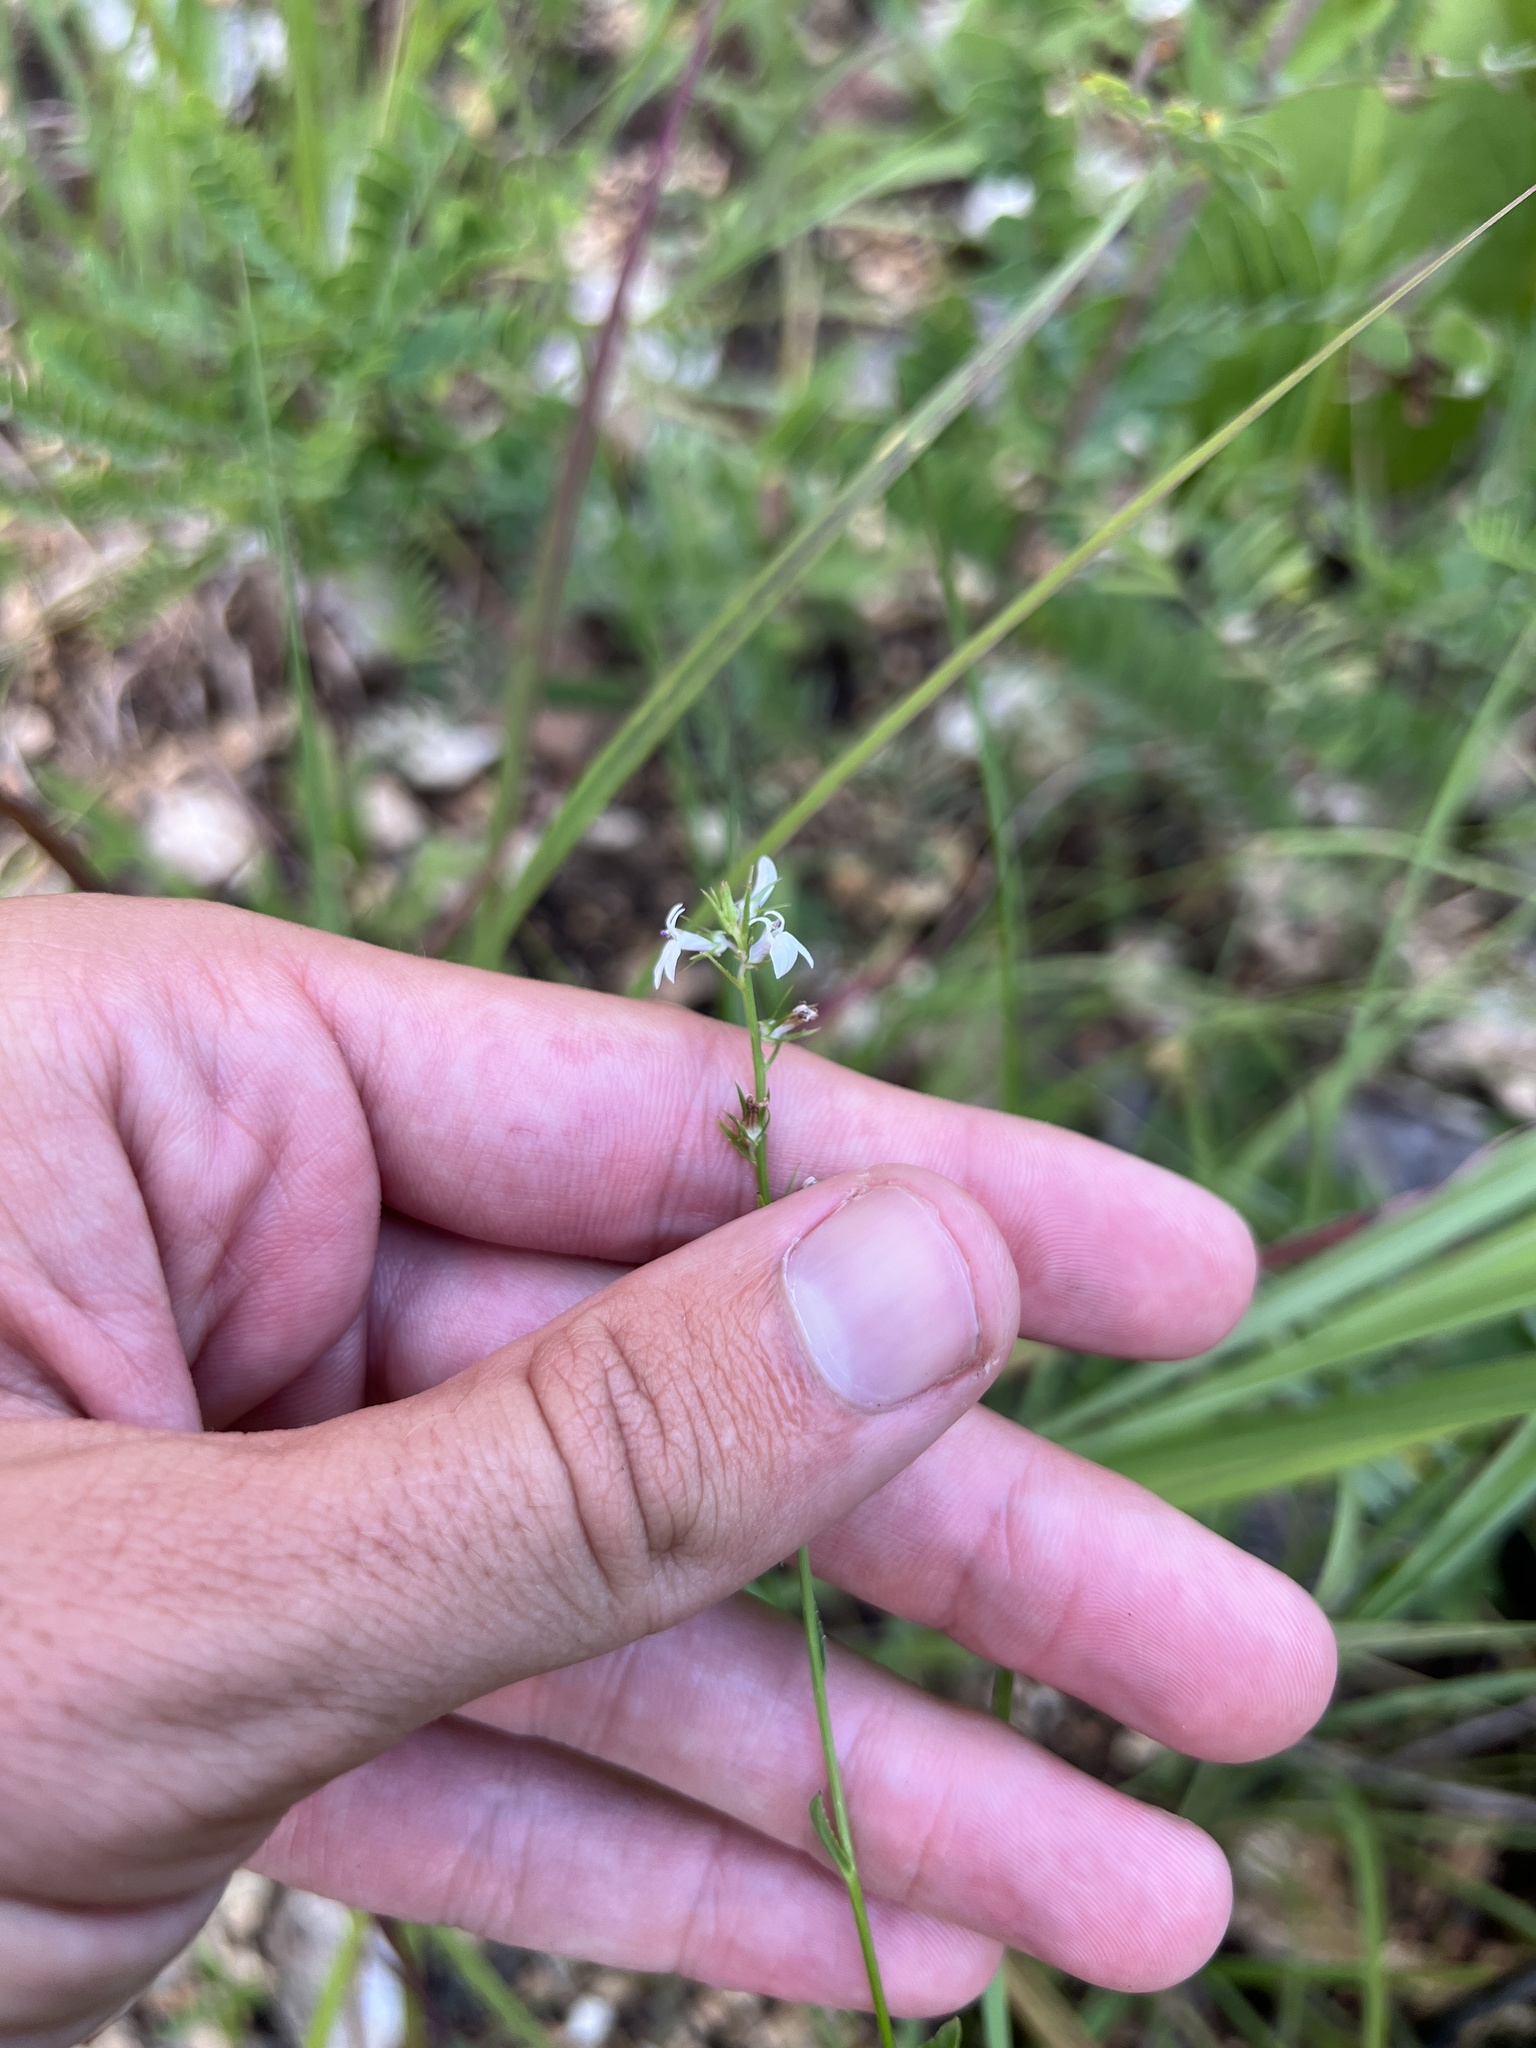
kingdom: Plantae
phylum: Tracheophyta
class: Magnoliopsida
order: Asterales
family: Campanulaceae
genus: Lobelia
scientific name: Lobelia spicata
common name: Pale-spike lobelia
